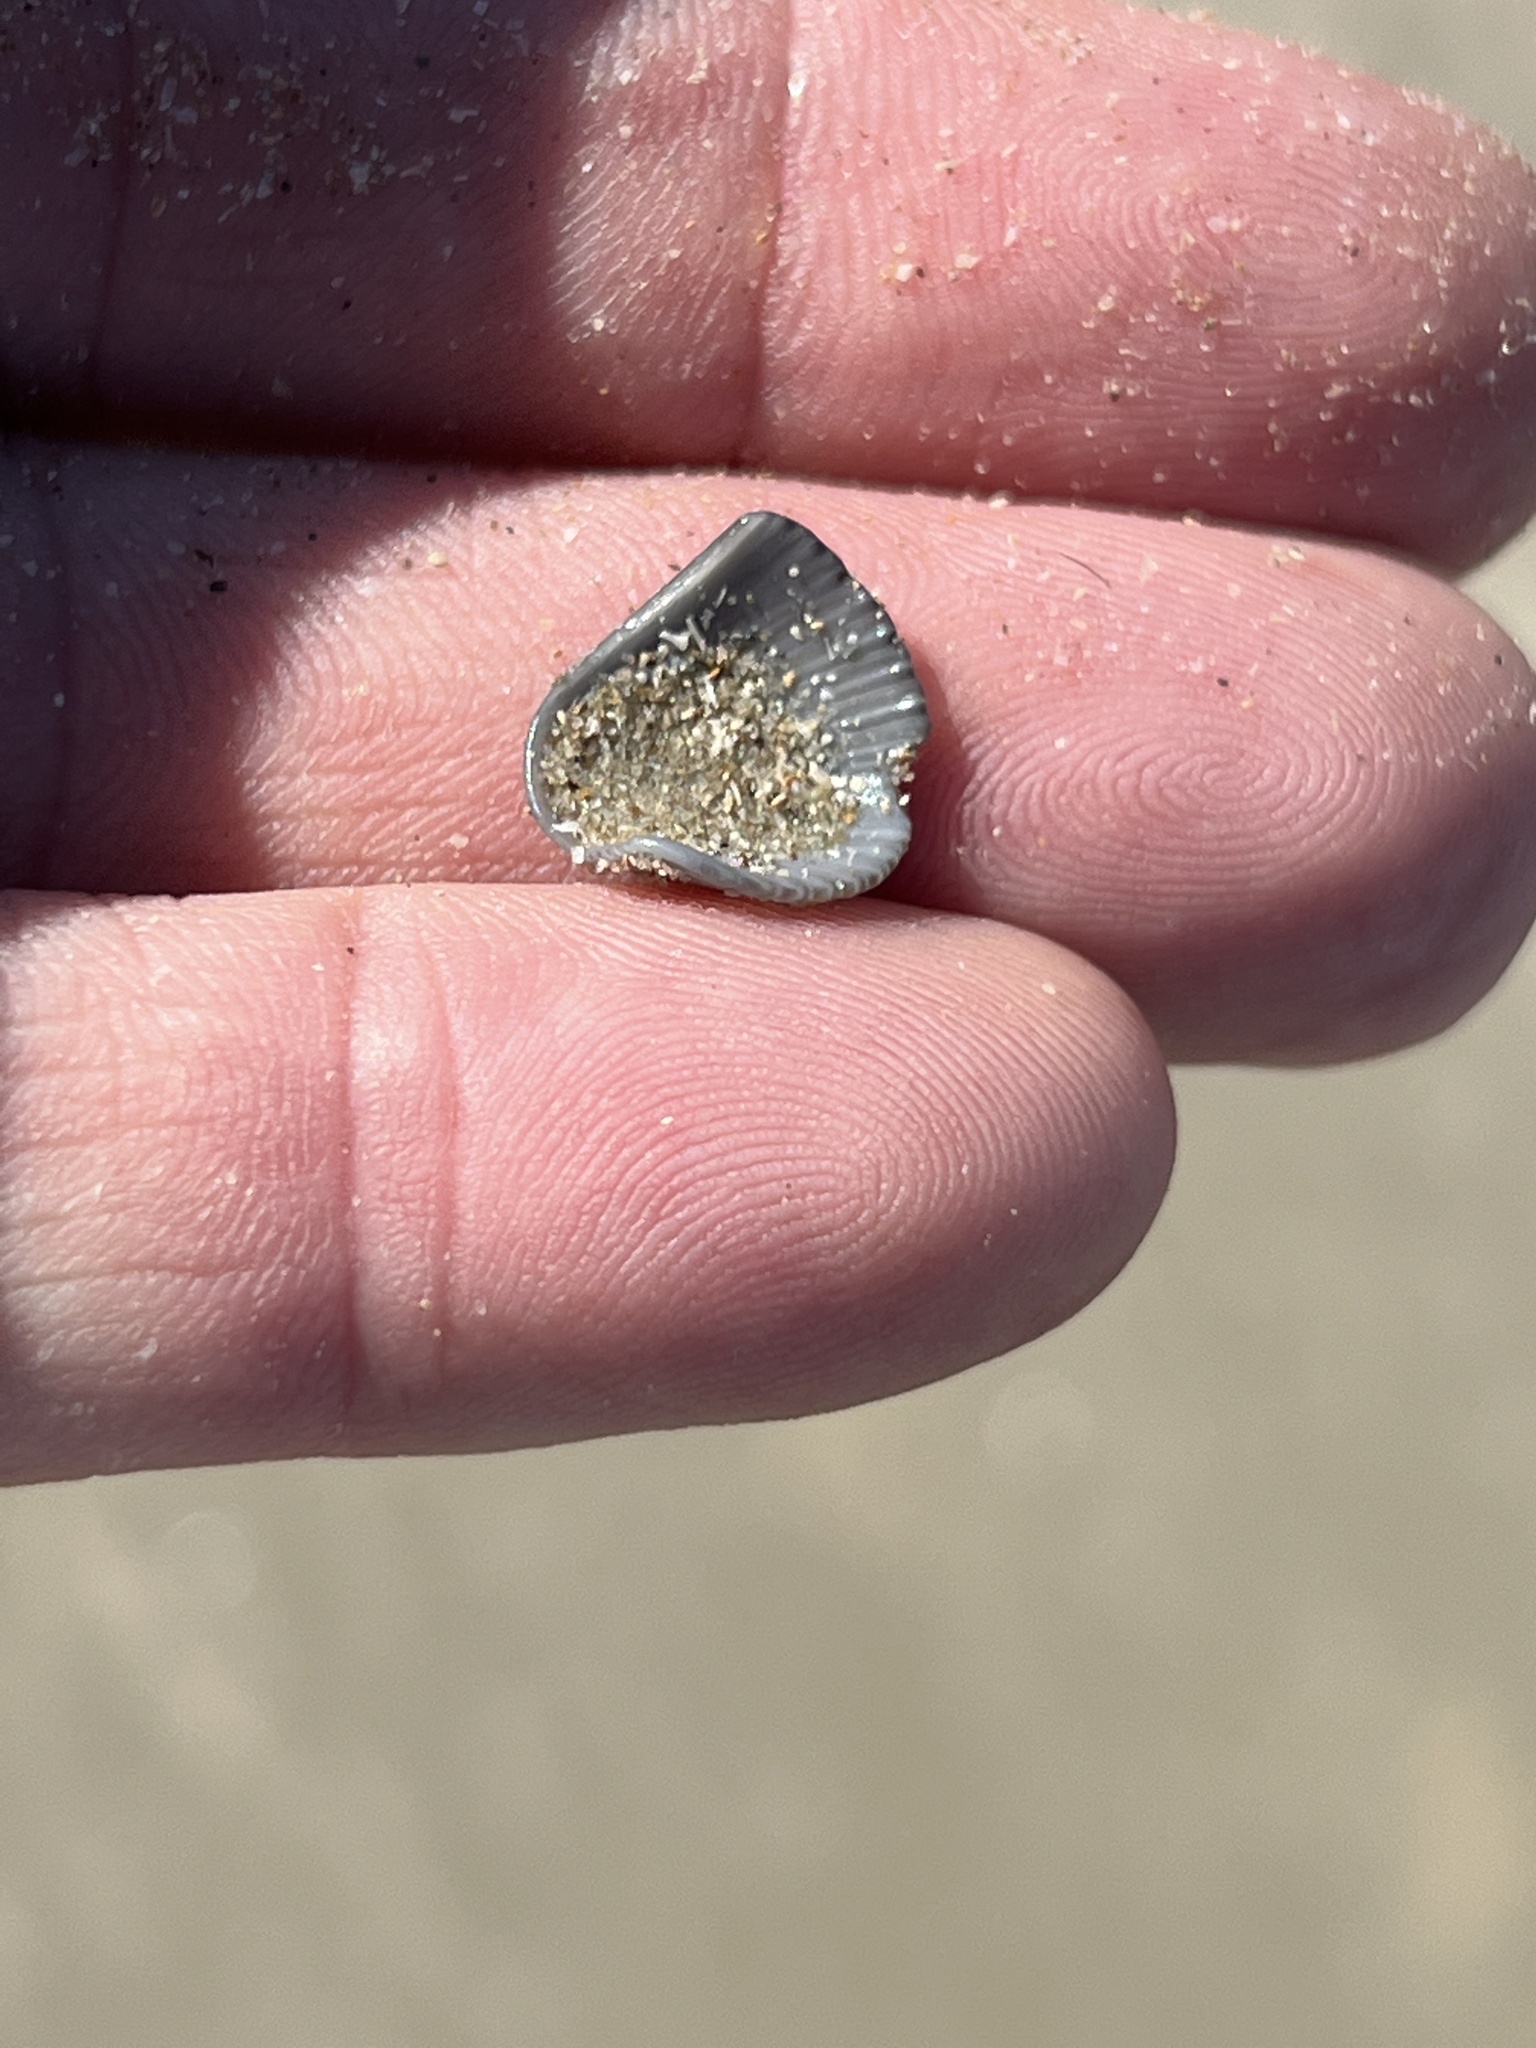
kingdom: Animalia
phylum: Mollusca
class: Bivalvia
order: Arcida
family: Arcidae
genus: Anadara
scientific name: Anadara chemnitzii
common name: Chemnitz's triangular ark
